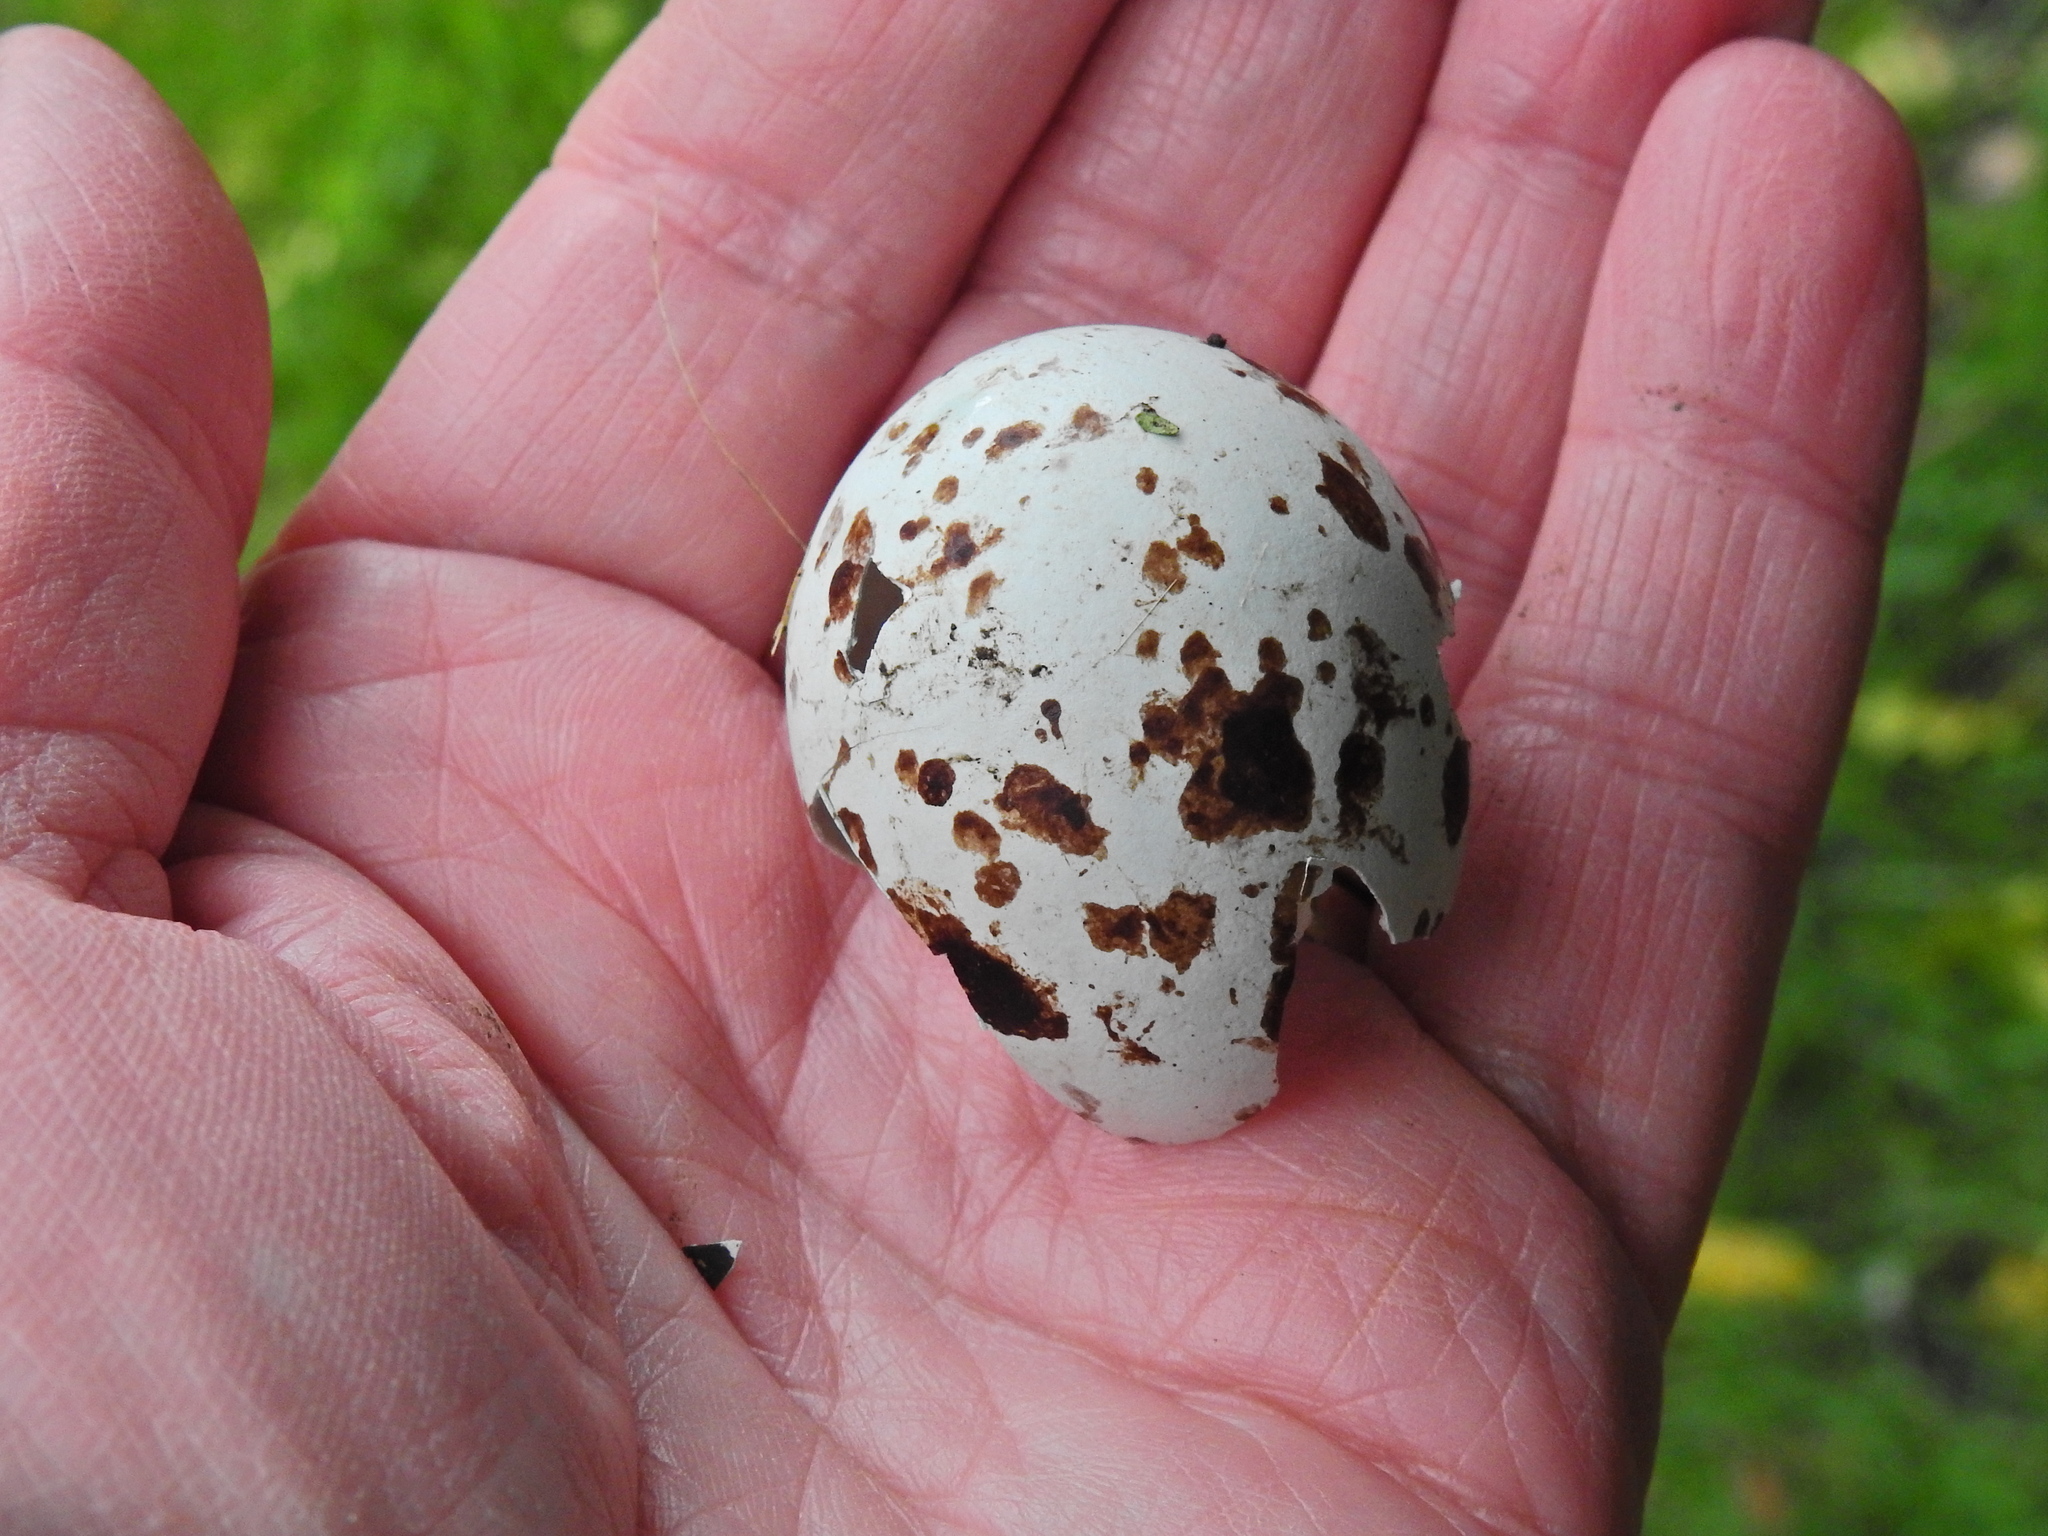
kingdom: Animalia
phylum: Chordata
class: Aves
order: Accipitriformes
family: Accipitridae
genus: Accipiter
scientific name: Accipiter nisus
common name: Eurasian sparrowhawk
